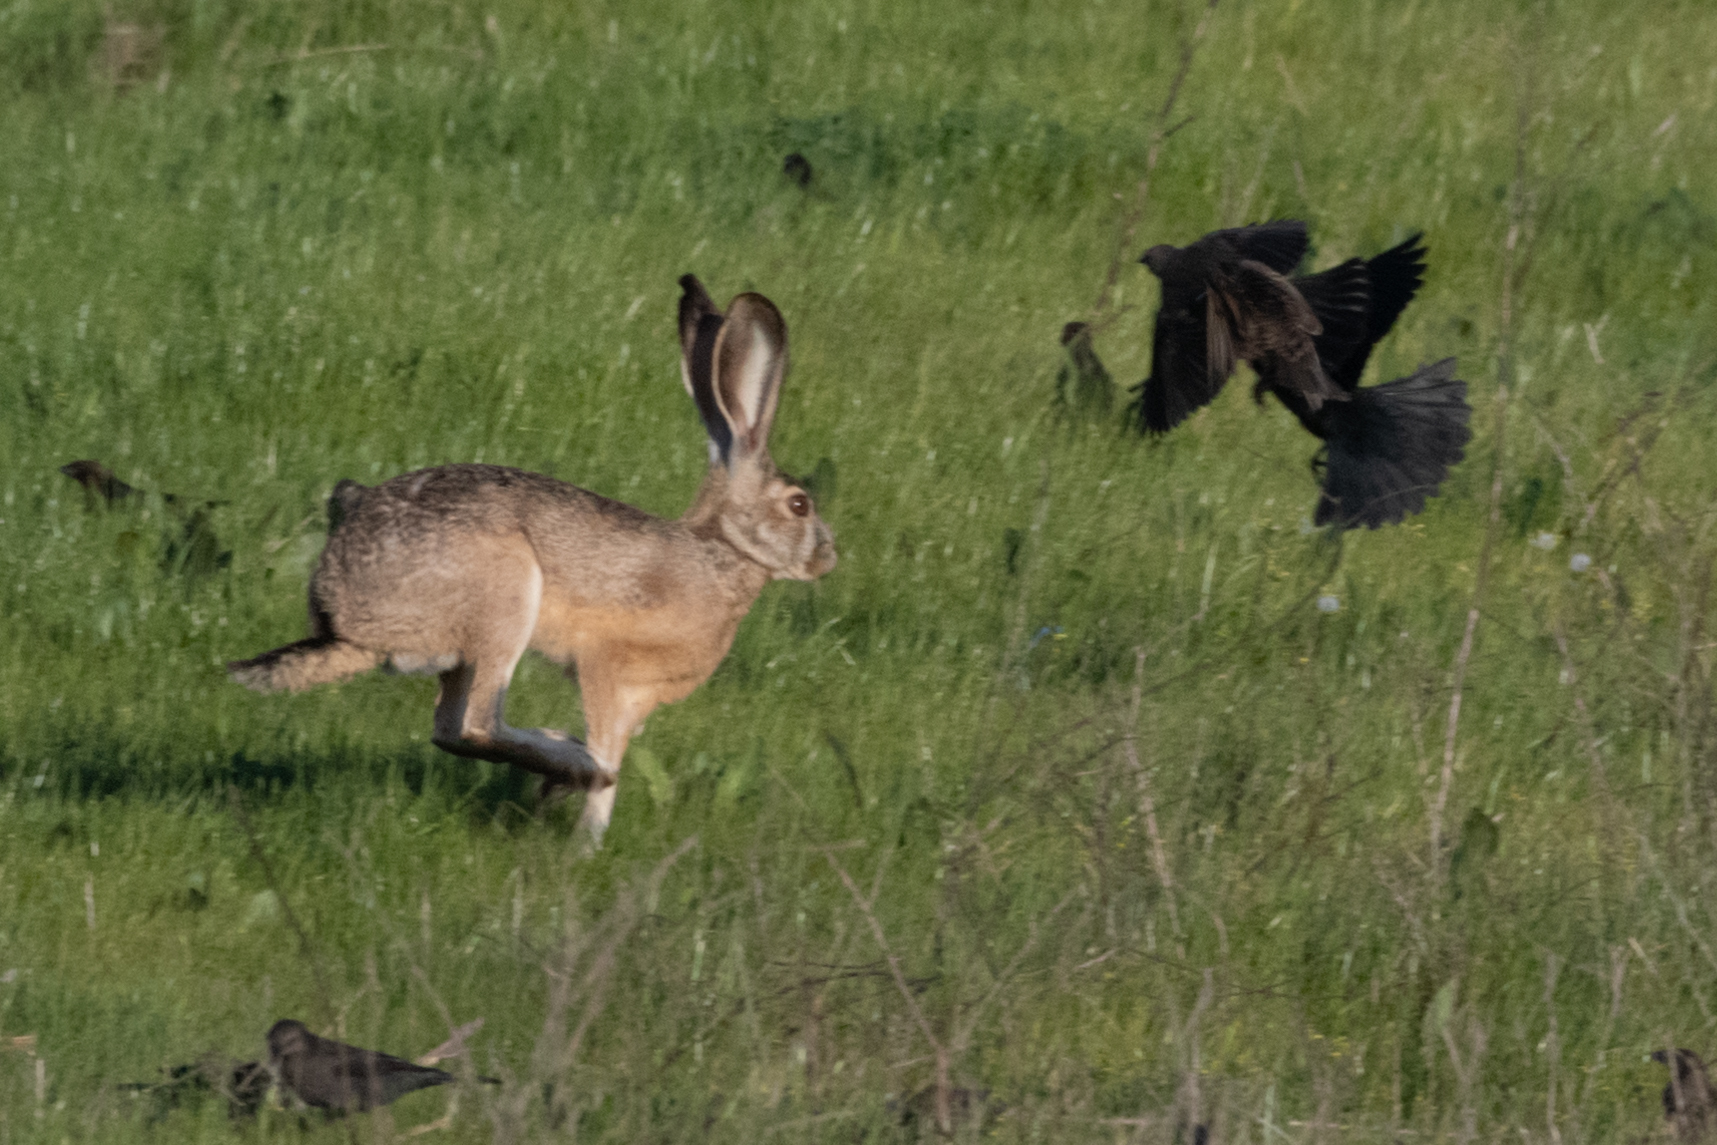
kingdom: Animalia
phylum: Chordata
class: Mammalia
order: Lagomorpha
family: Leporidae
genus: Lepus
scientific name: Lepus californicus
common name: Black-tailed jackrabbit
